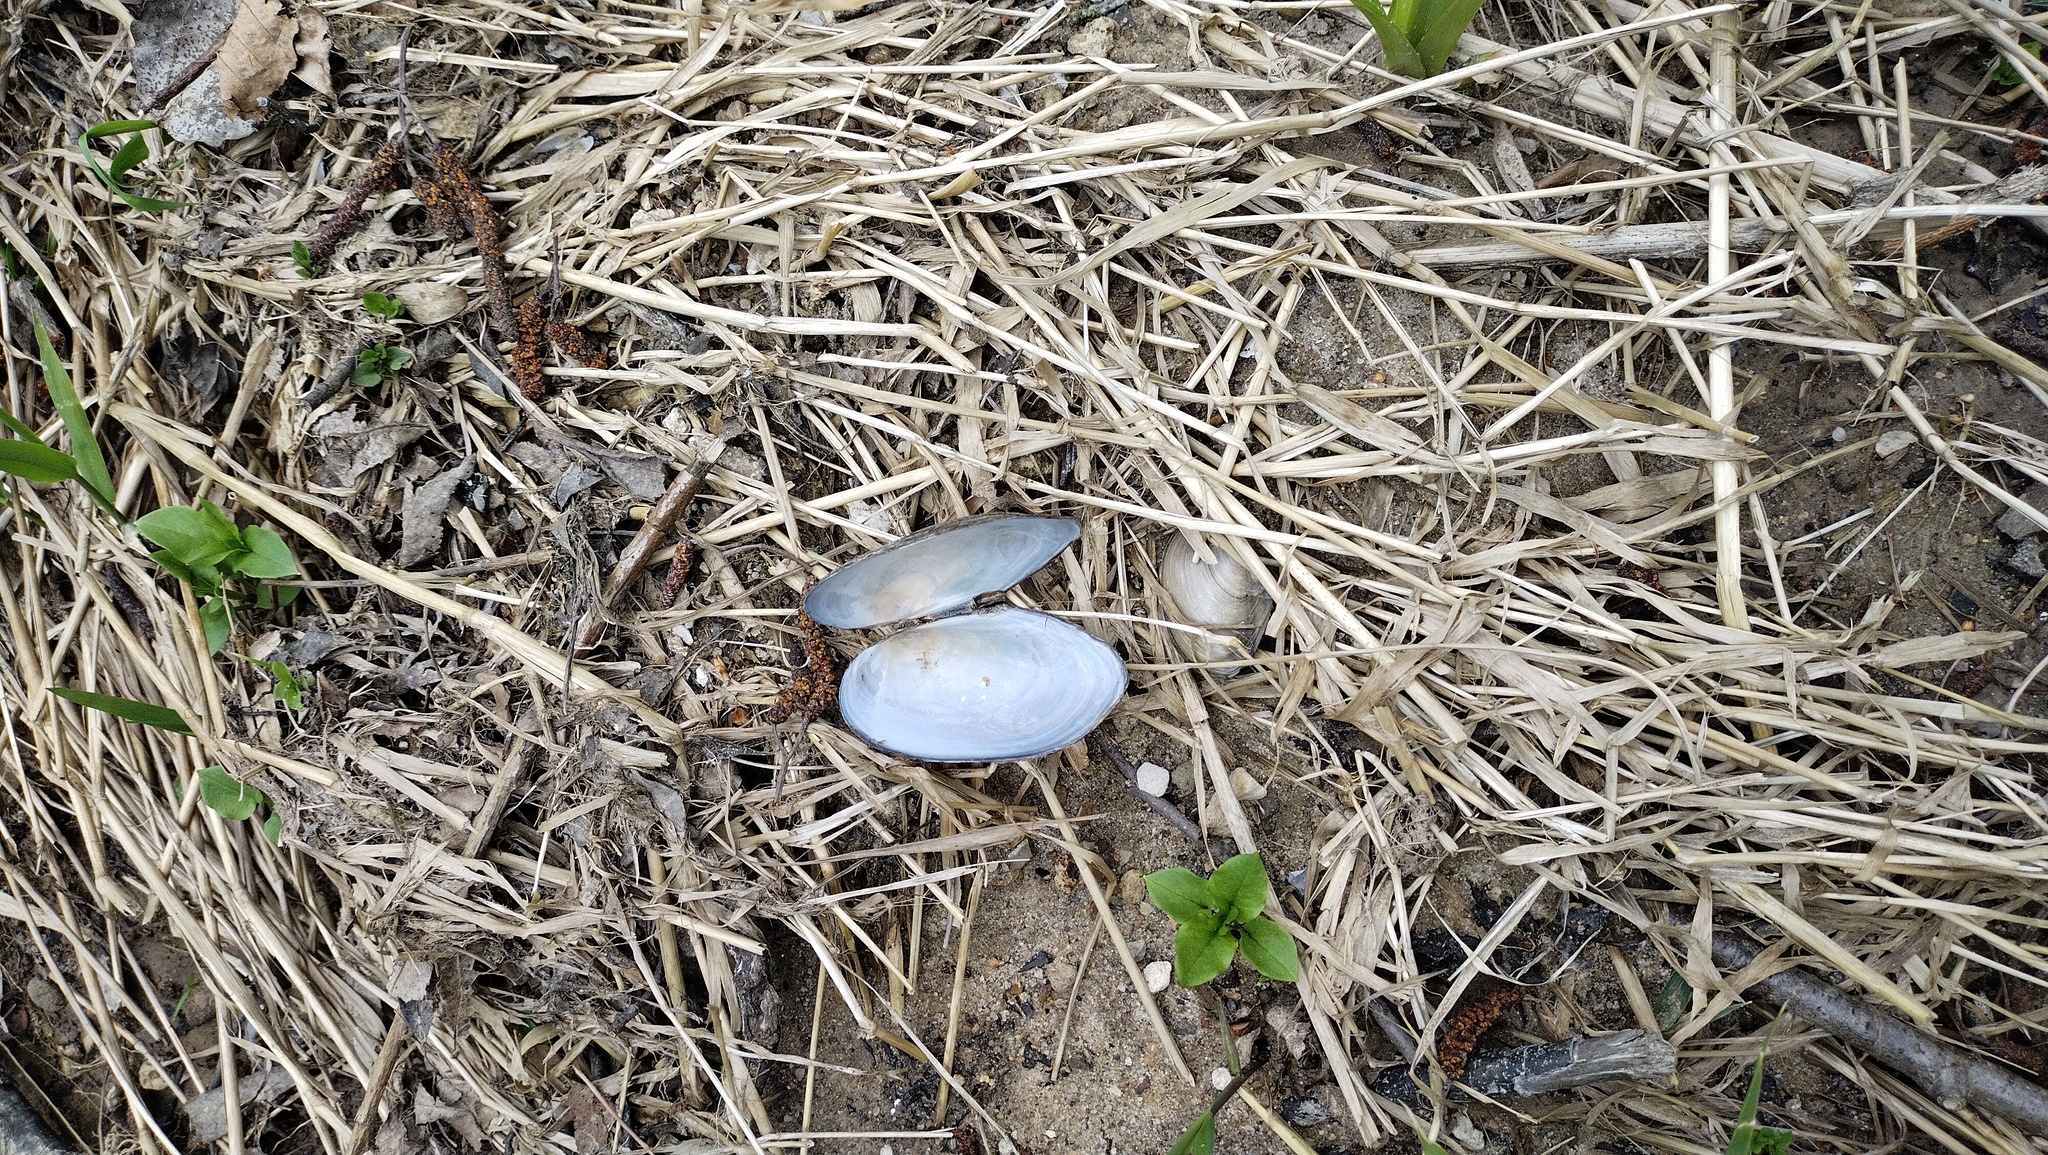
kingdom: Animalia
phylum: Mollusca
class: Bivalvia
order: Unionida
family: Unionidae
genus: Anodonta
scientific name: Anodonta anatina
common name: Duck mussel
